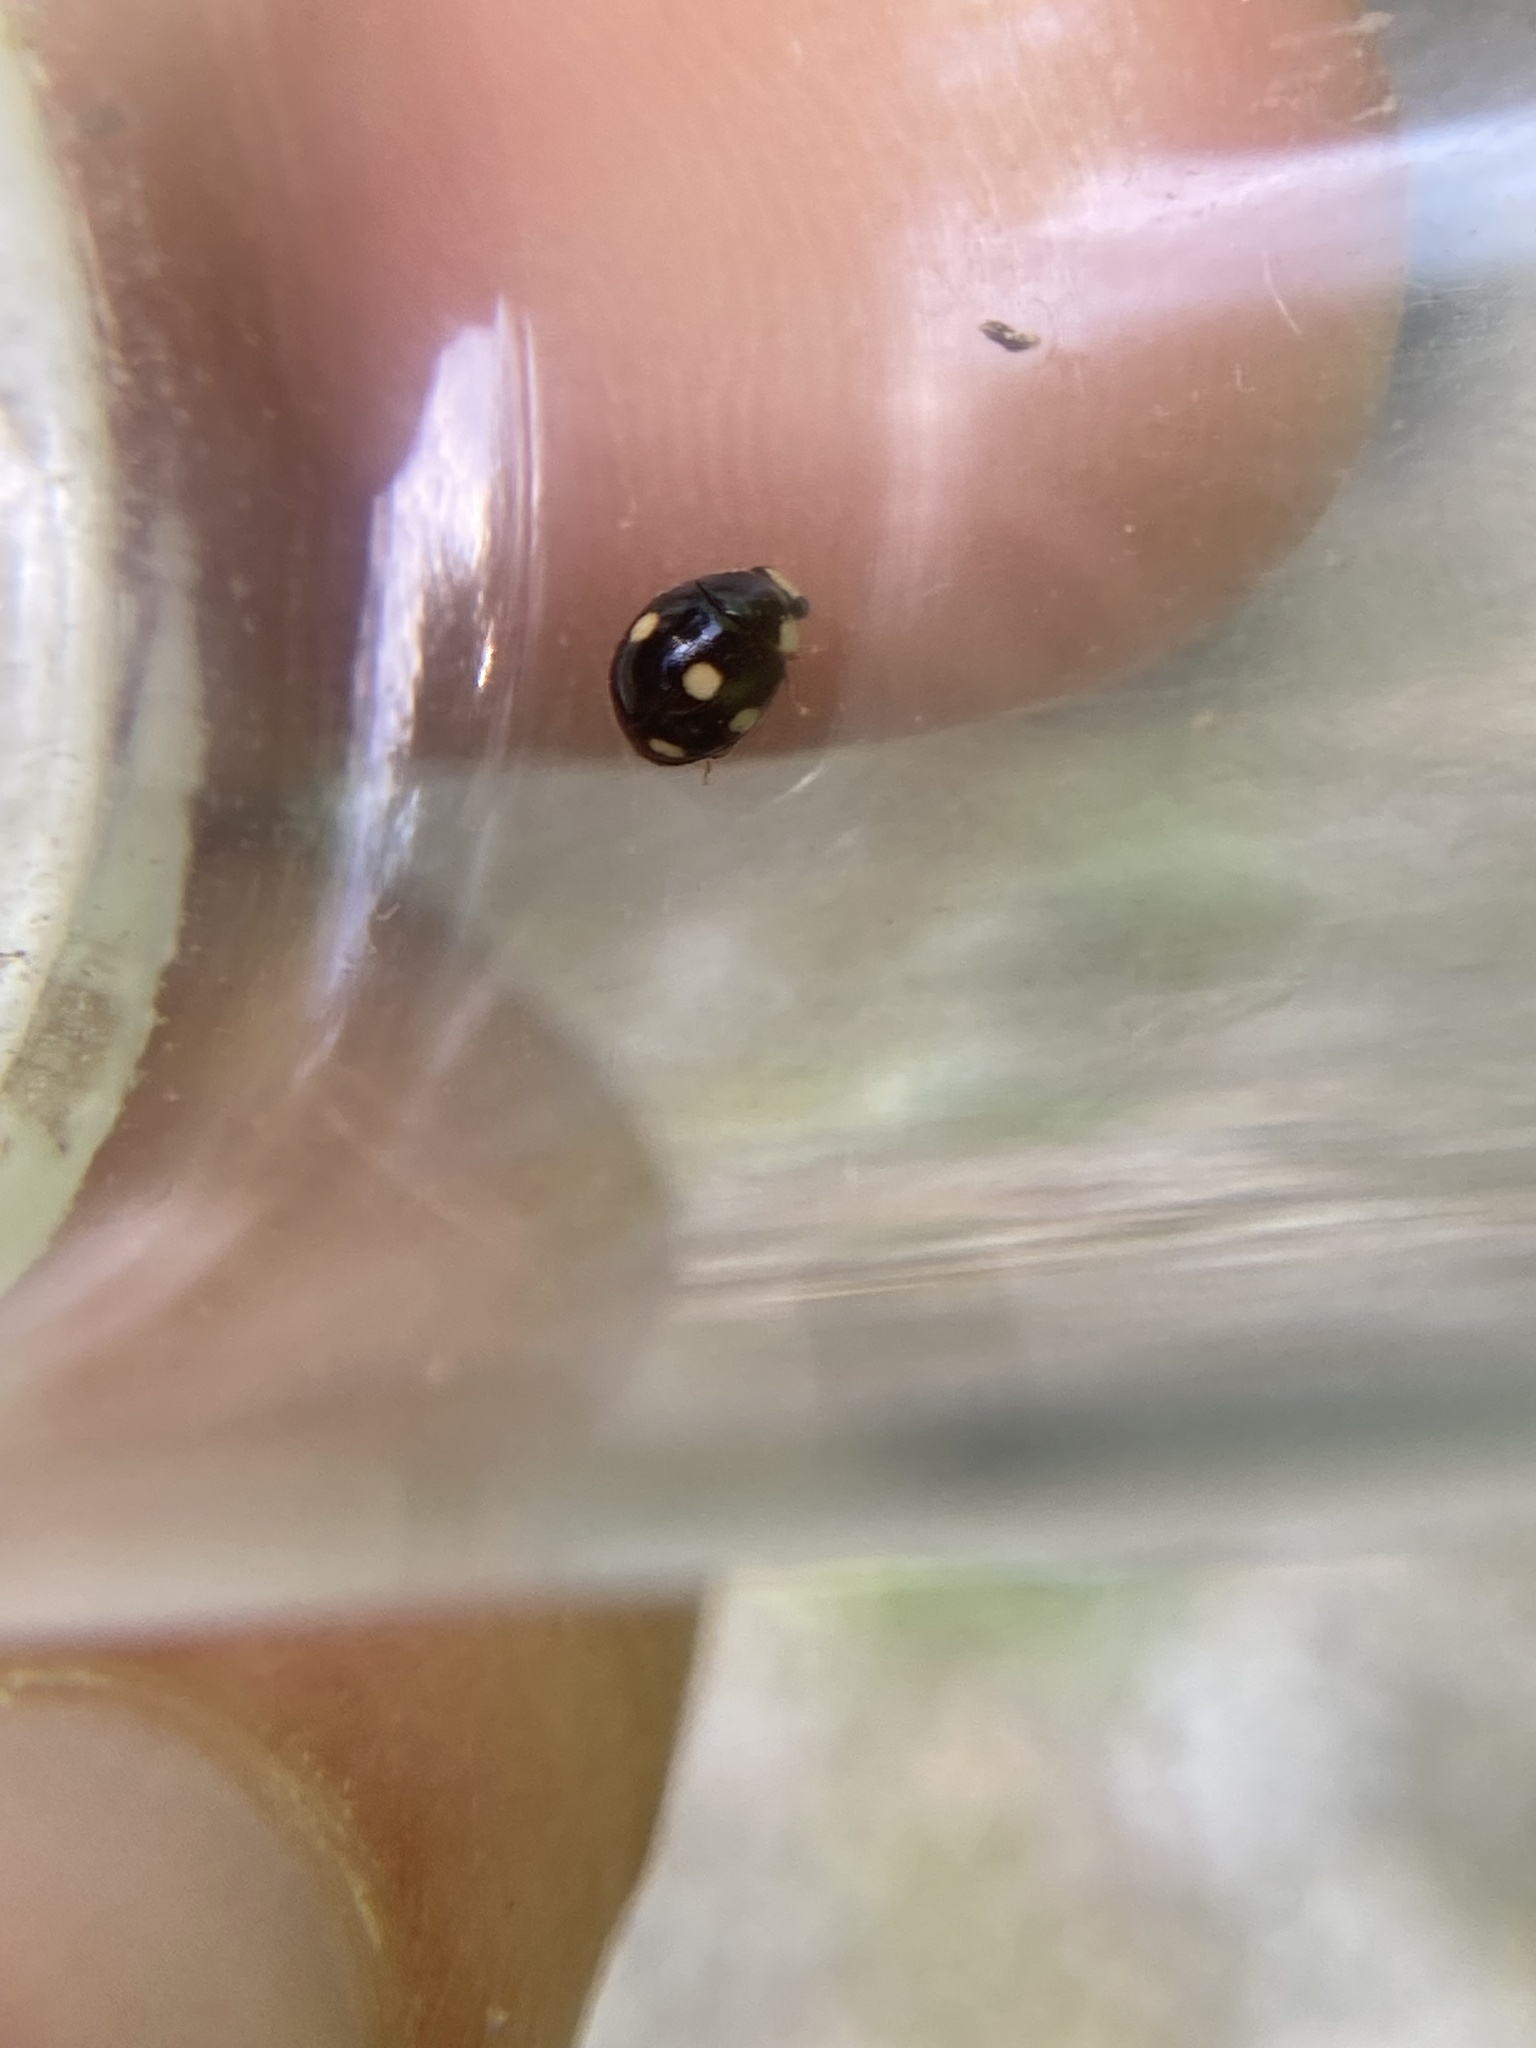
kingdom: Animalia
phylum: Arthropoda
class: Insecta
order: Coleoptera
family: Coccinellidae
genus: Hyperaspis
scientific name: Hyperaspis deludens
